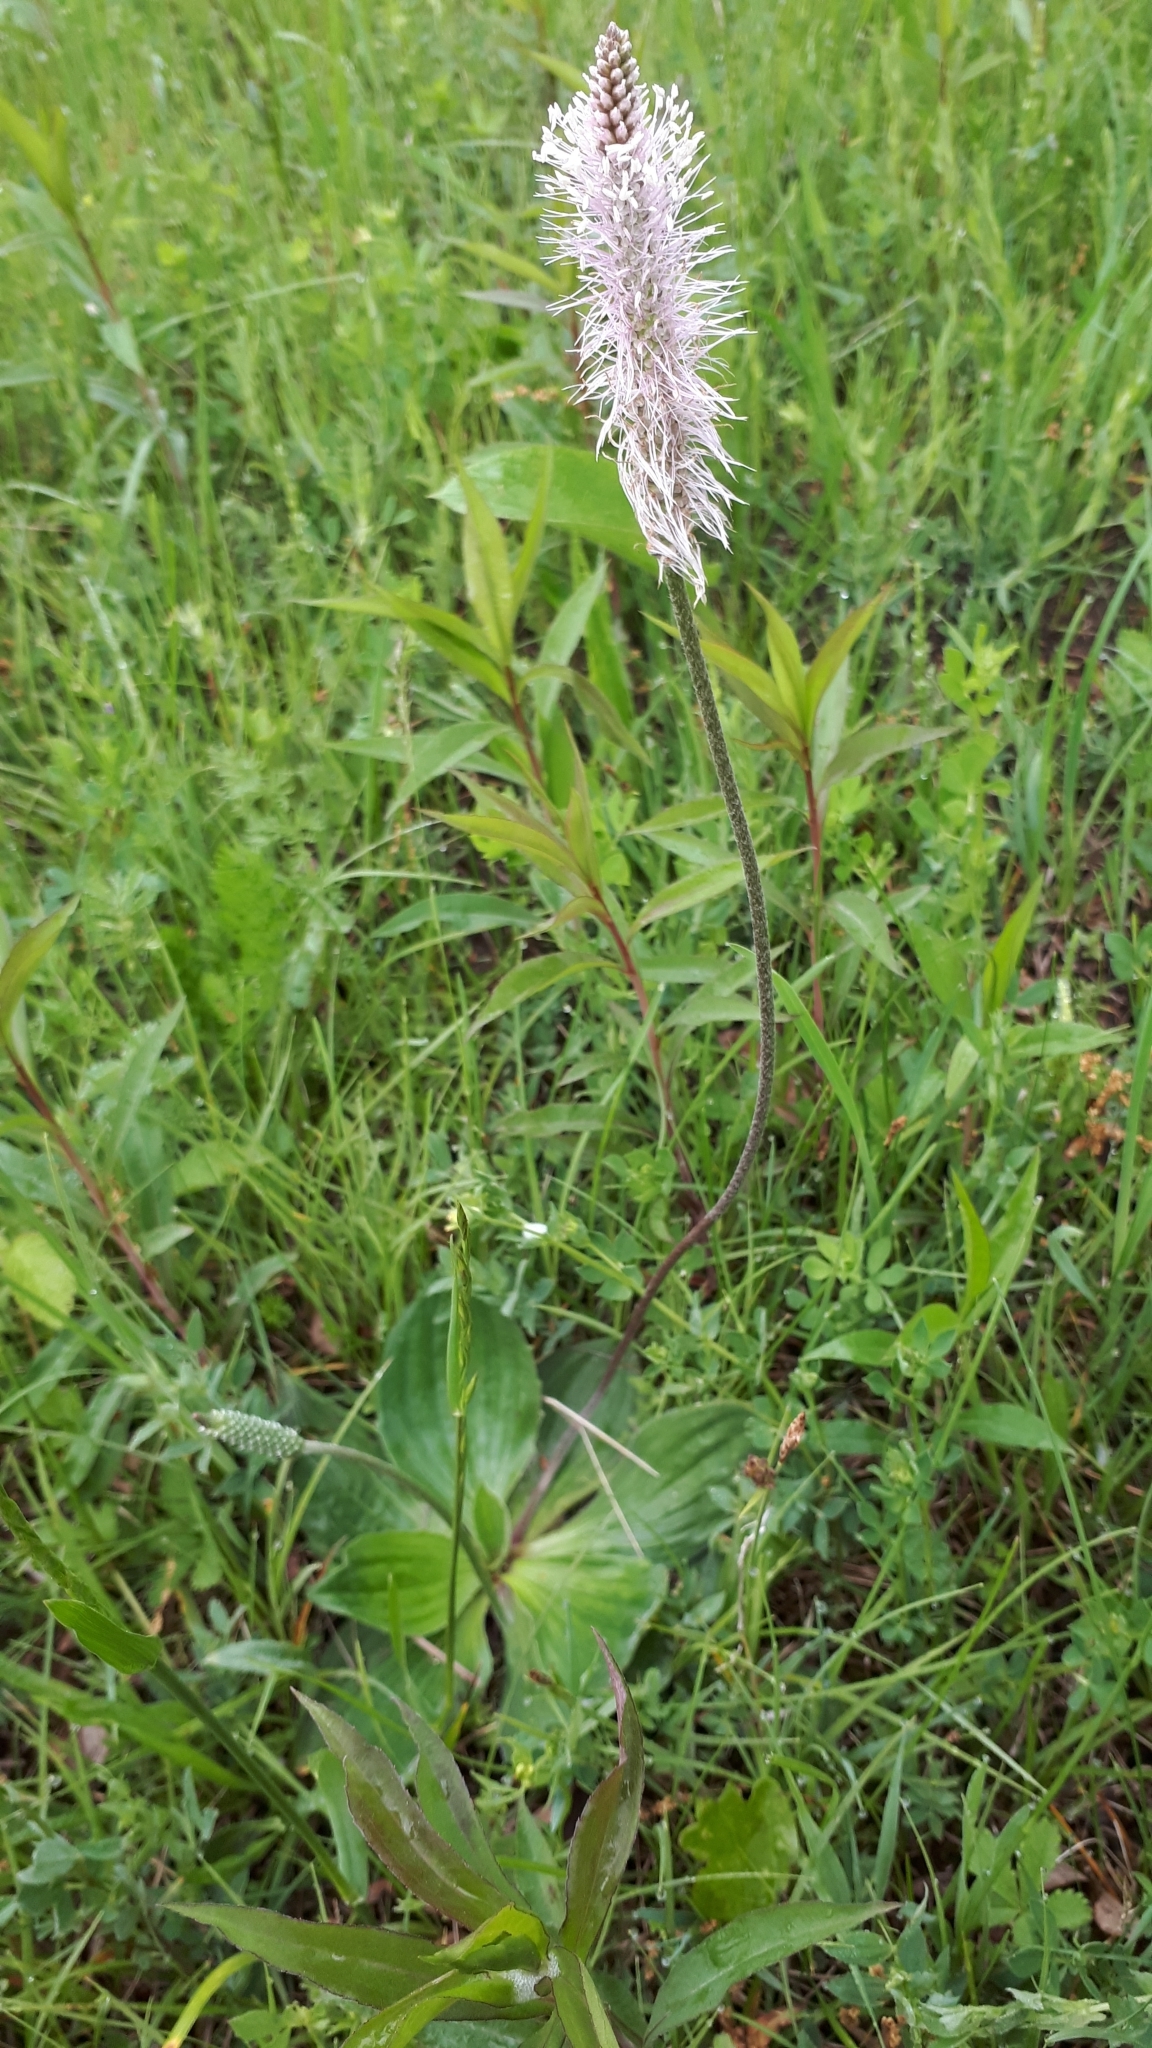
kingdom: Plantae
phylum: Tracheophyta
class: Magnoliopsida
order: Lamiales
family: Plantaginaceae
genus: Plantago
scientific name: Plantago media
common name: Hoary plantain
